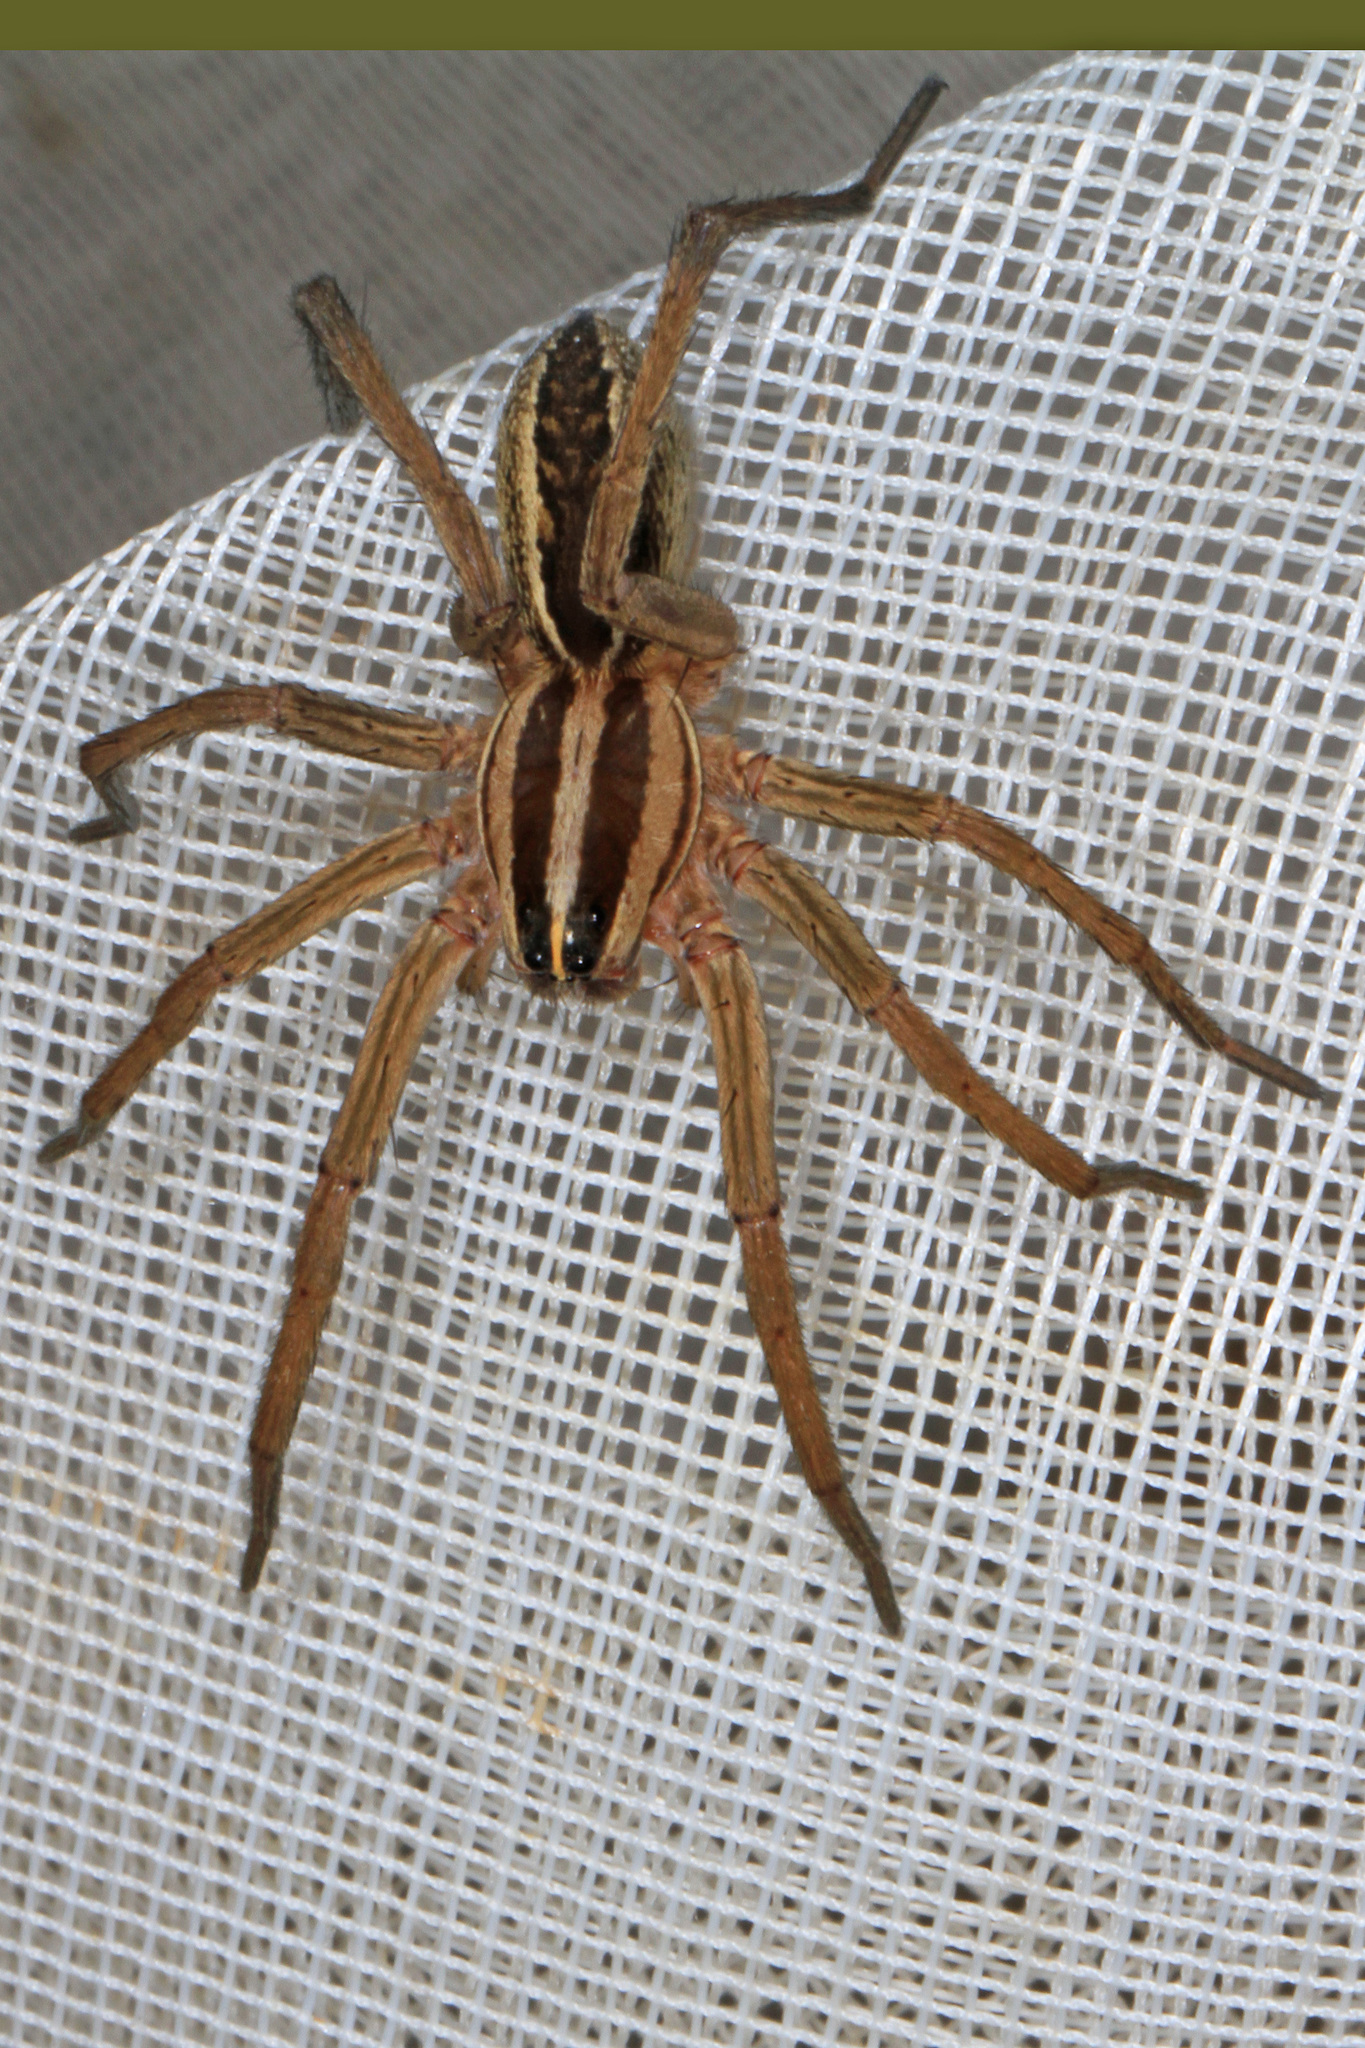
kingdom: Animalia
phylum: Arthropoda
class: Arachnida
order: Araneae
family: Lycosidae
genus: Rabidosa
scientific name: Rabidosa rabida
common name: Rabid wolf spider
